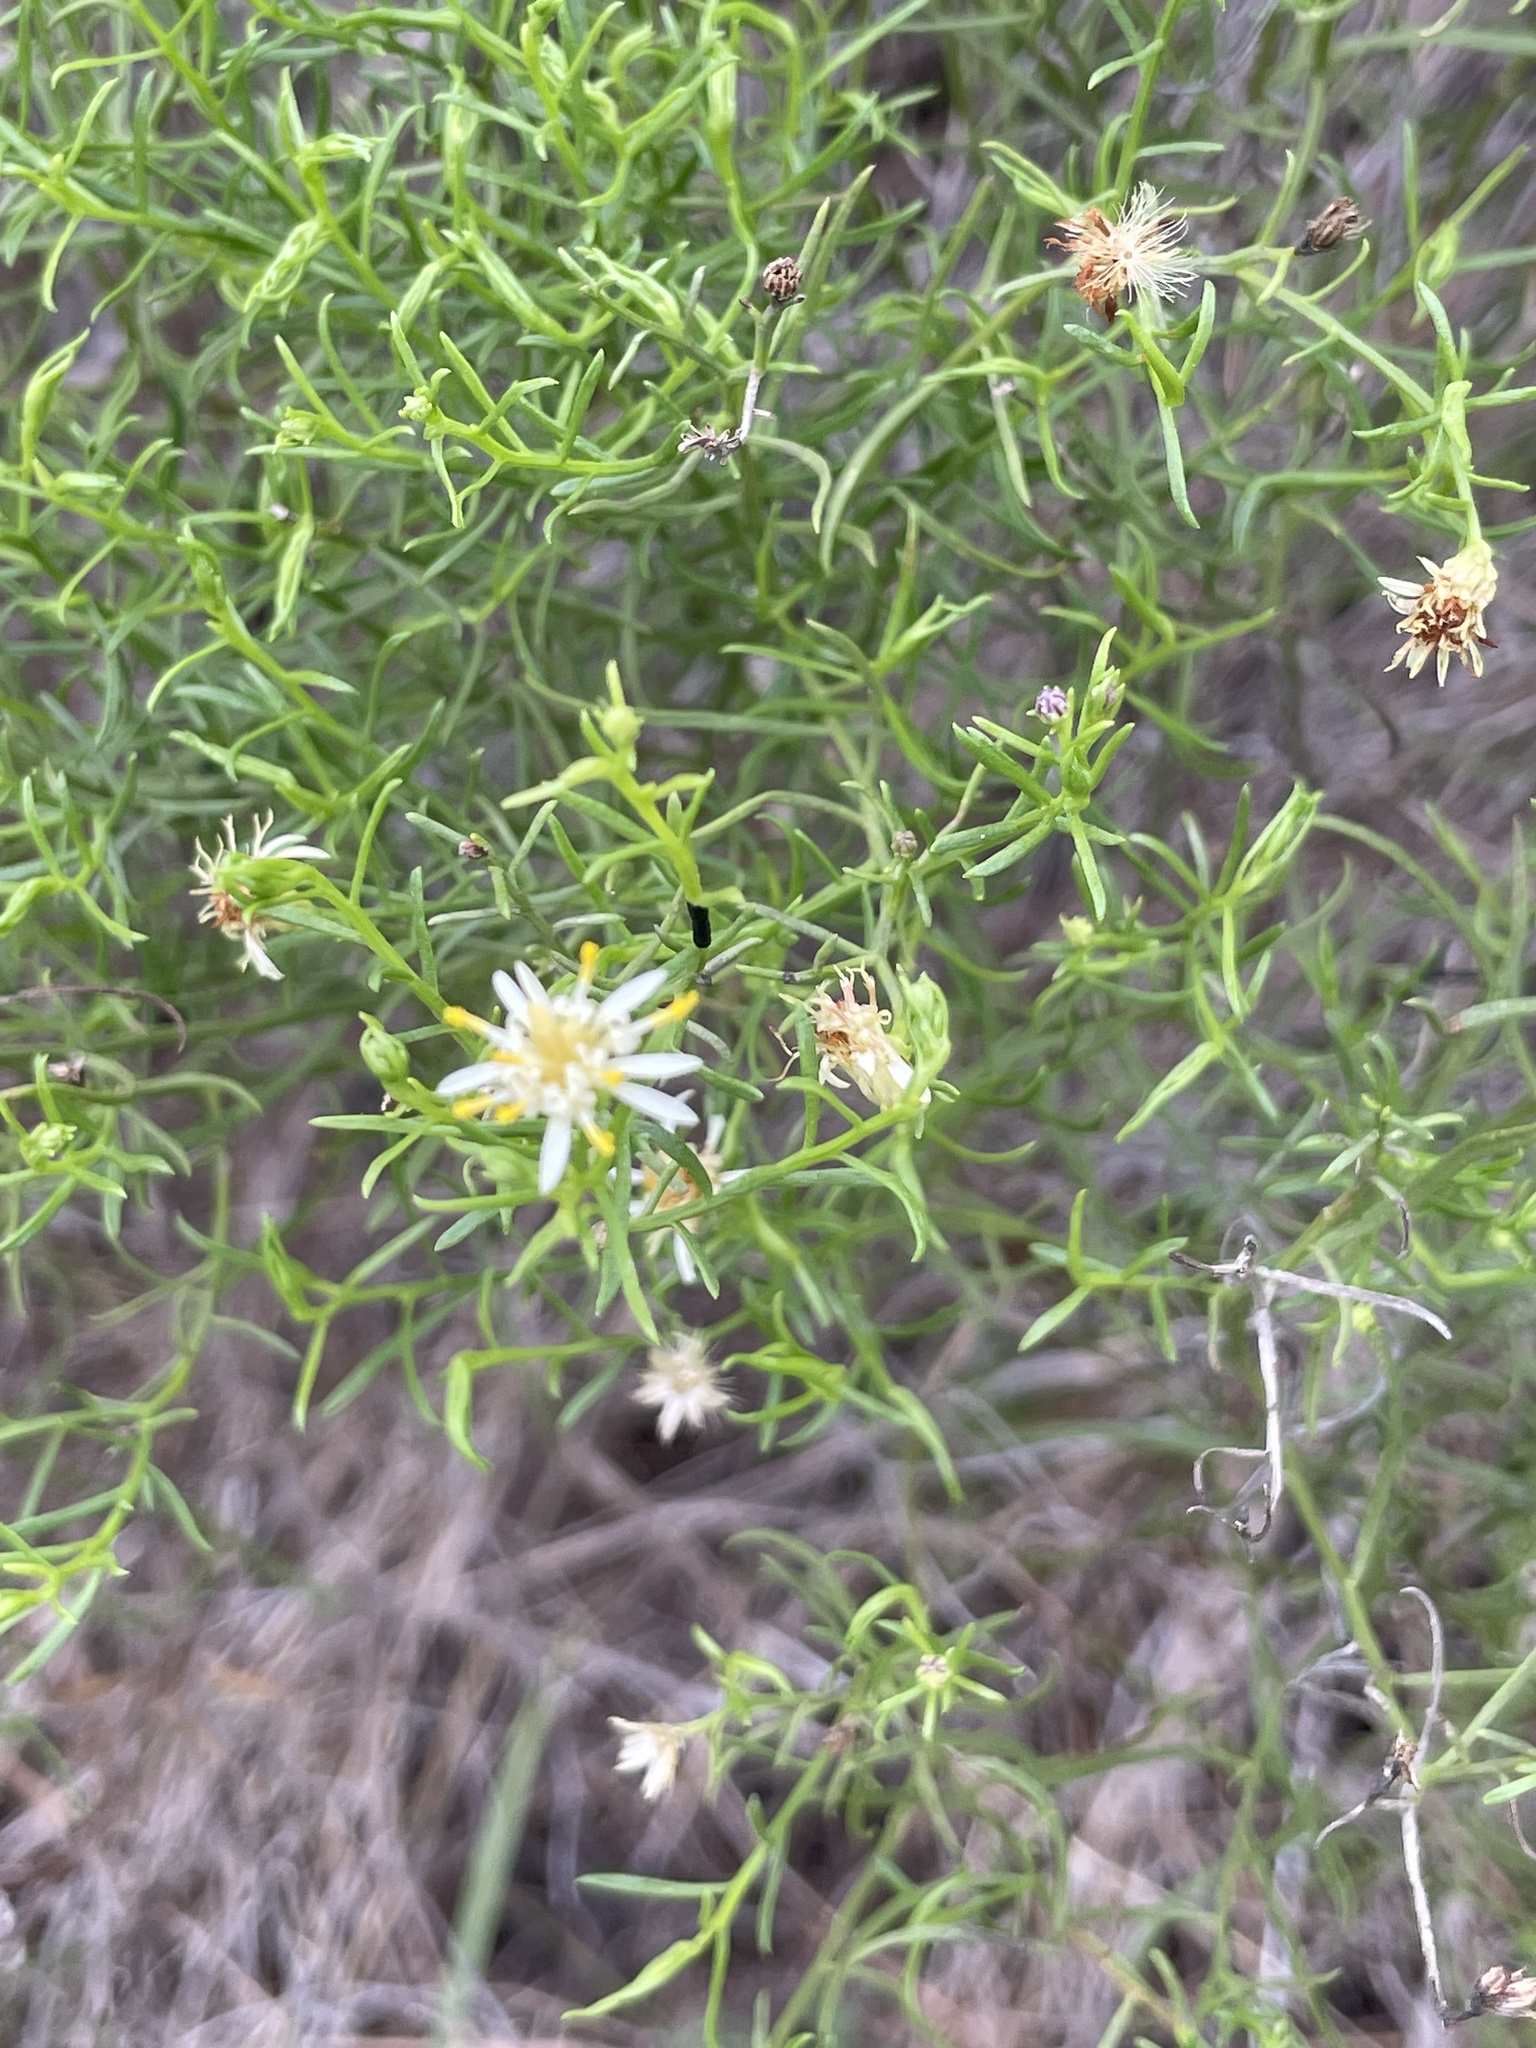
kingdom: Plantae
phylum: Tracheophyta
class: Magnoliopsida
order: Asterales
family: Asteraceae
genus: Medranoa
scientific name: Medranoa palmeri
